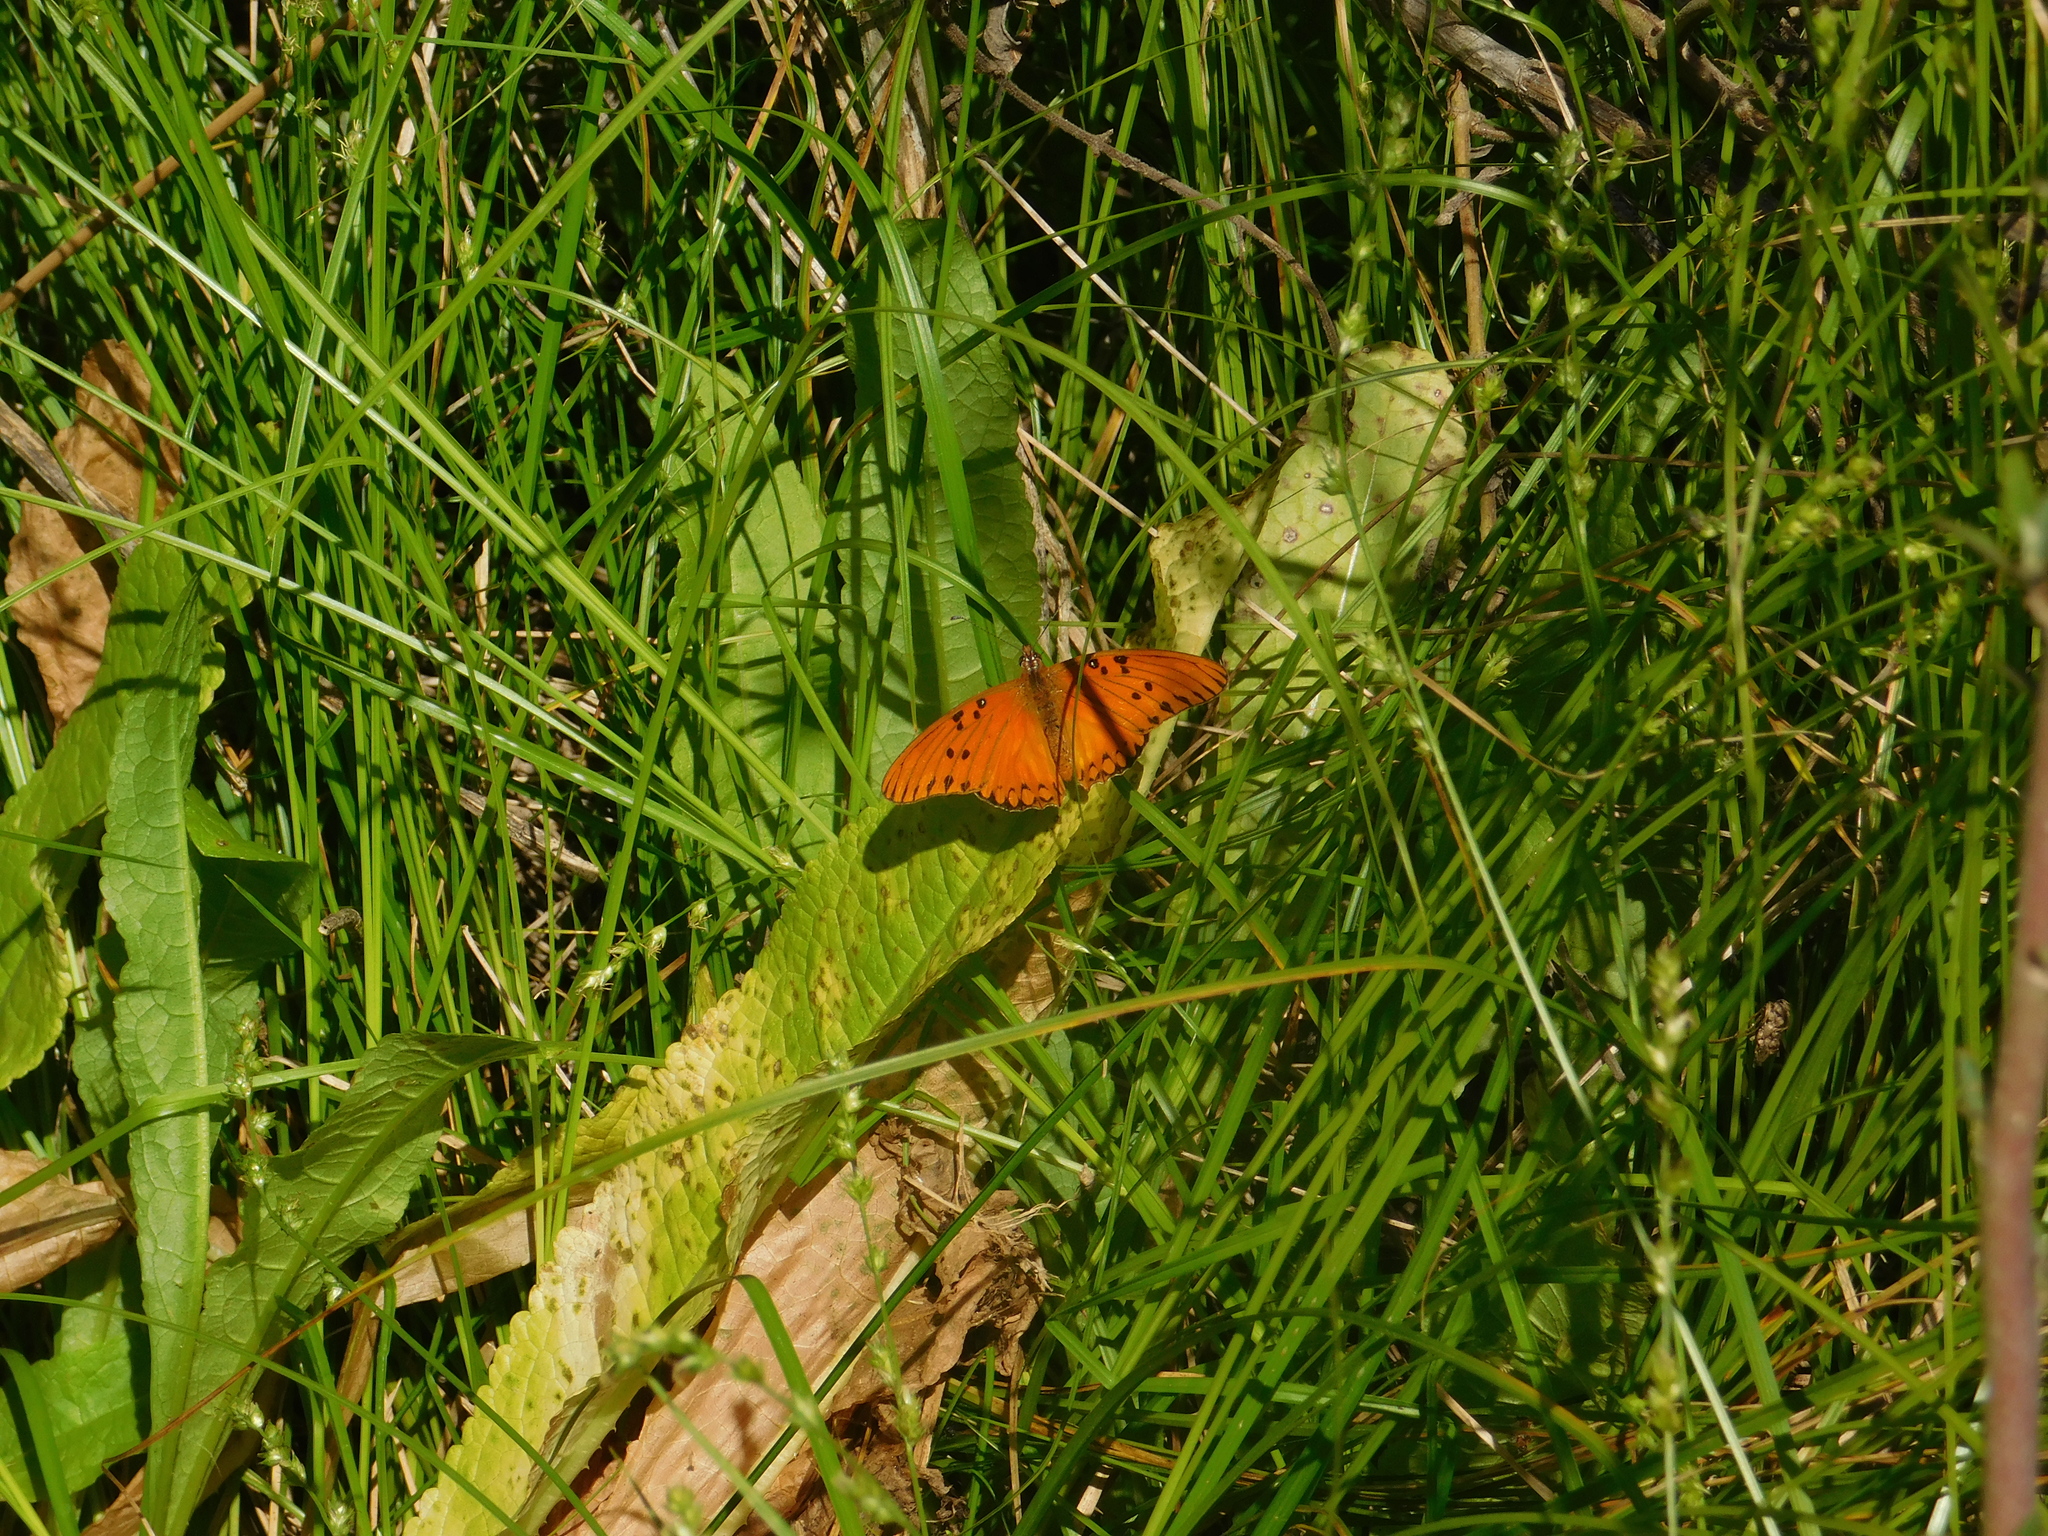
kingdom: Animalia
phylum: Arthropoda
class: Insecta
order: Lepidoptera
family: Nymphalidae
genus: Dione
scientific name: Dione vanillae
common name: Gulf fritillary
